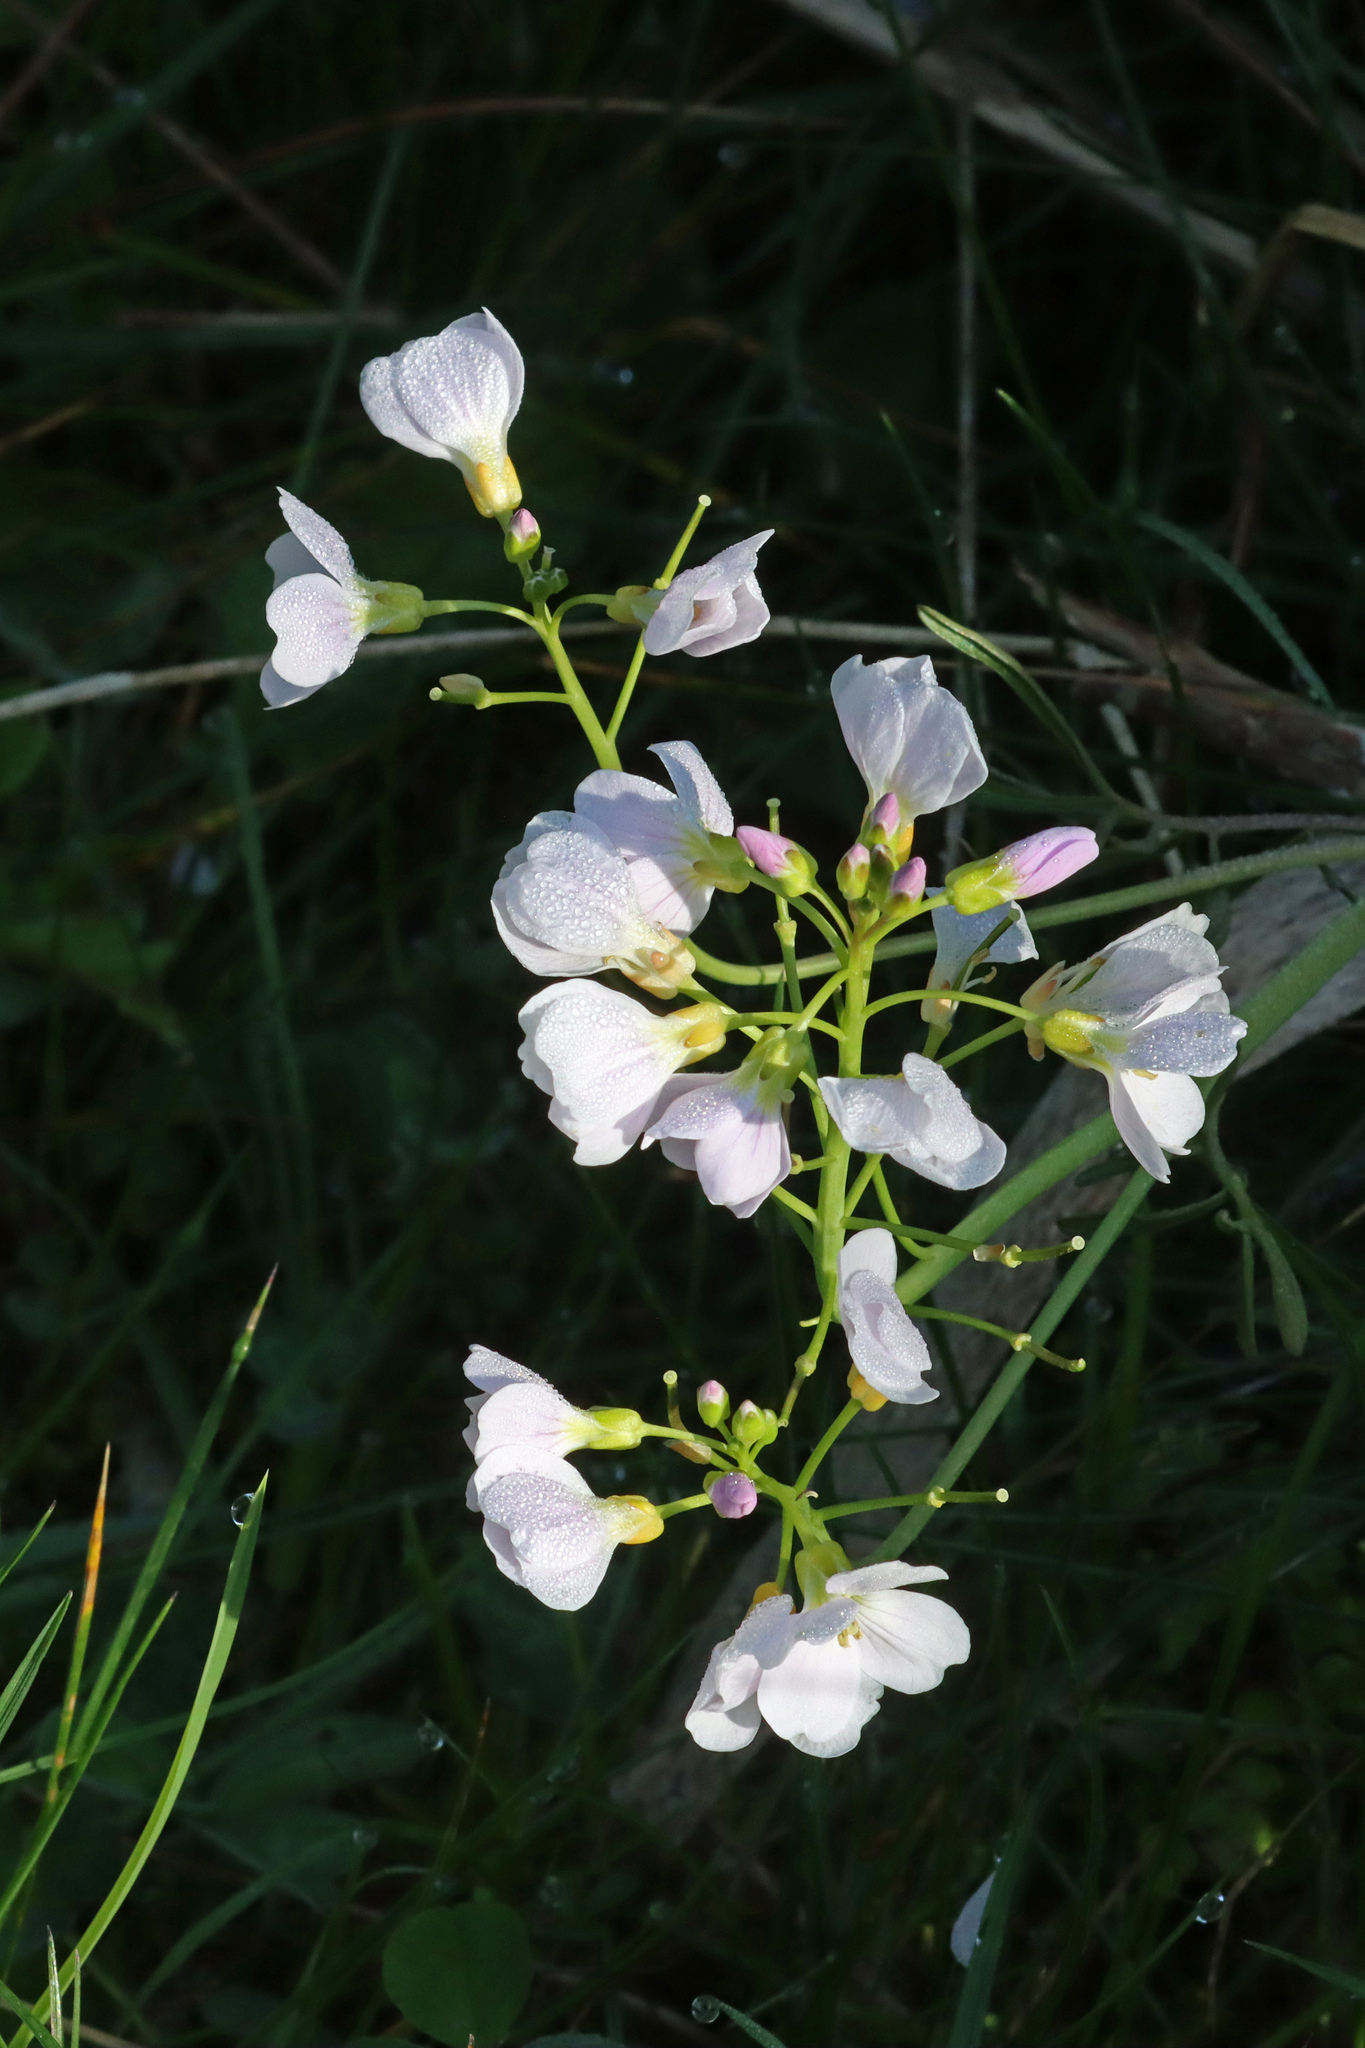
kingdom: Plantae
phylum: Tracheophyta
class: Magnoliopsida
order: Brassicales
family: Brassicaceae
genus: Cardamine
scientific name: Cardamine pratensis
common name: Cuckoo flower
